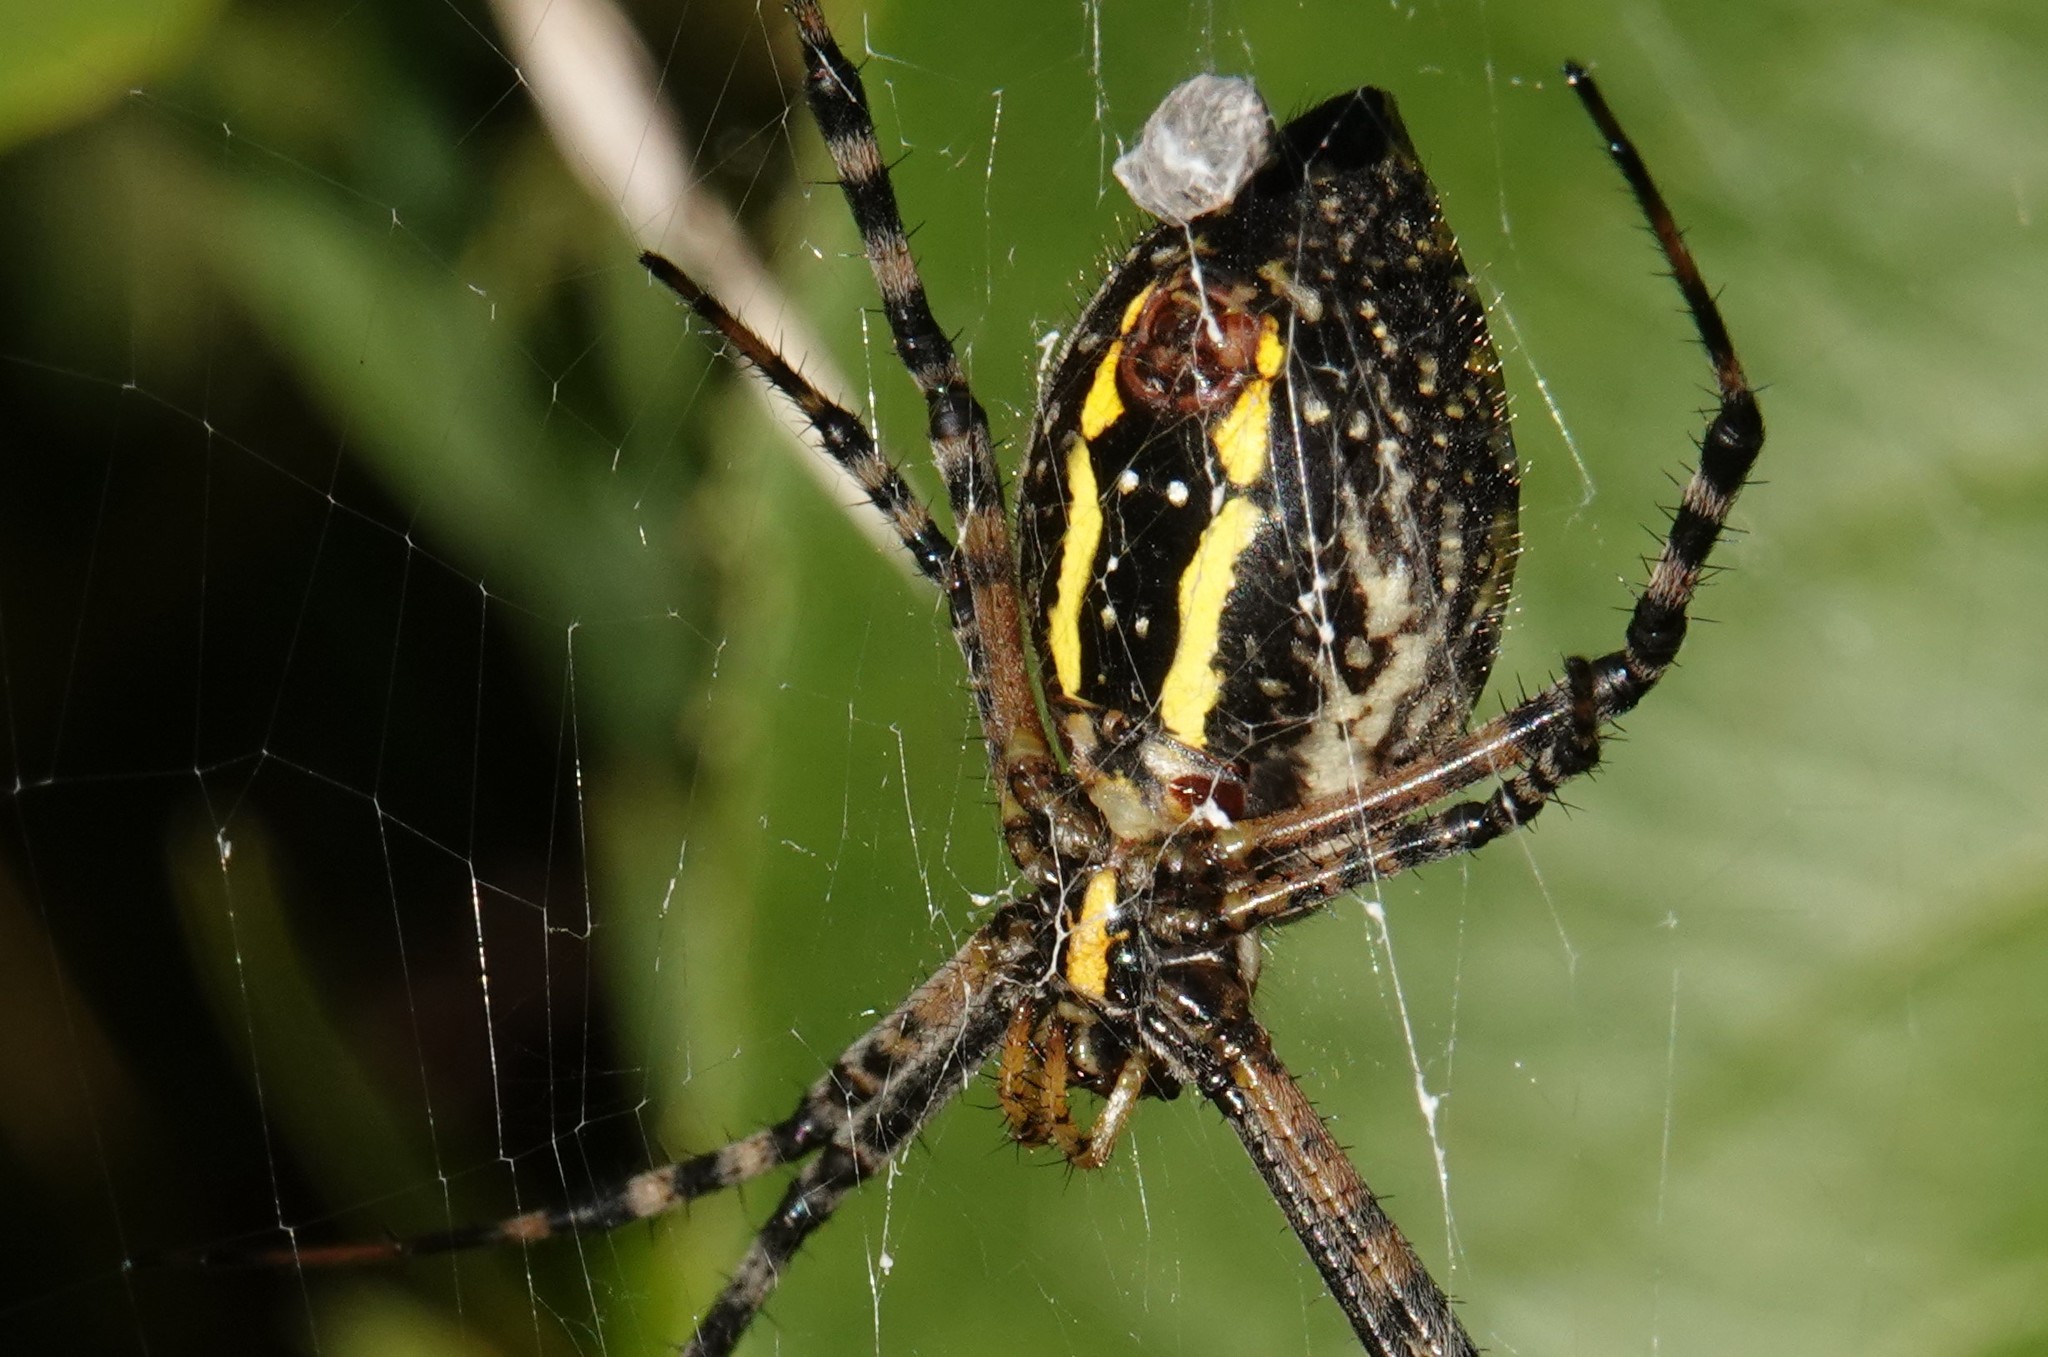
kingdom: Animalia
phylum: Arthropoda
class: Arachnida
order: Araneae
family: Araneidae
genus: Argiope
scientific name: Argiope trifasciata
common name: Banded garden spider
